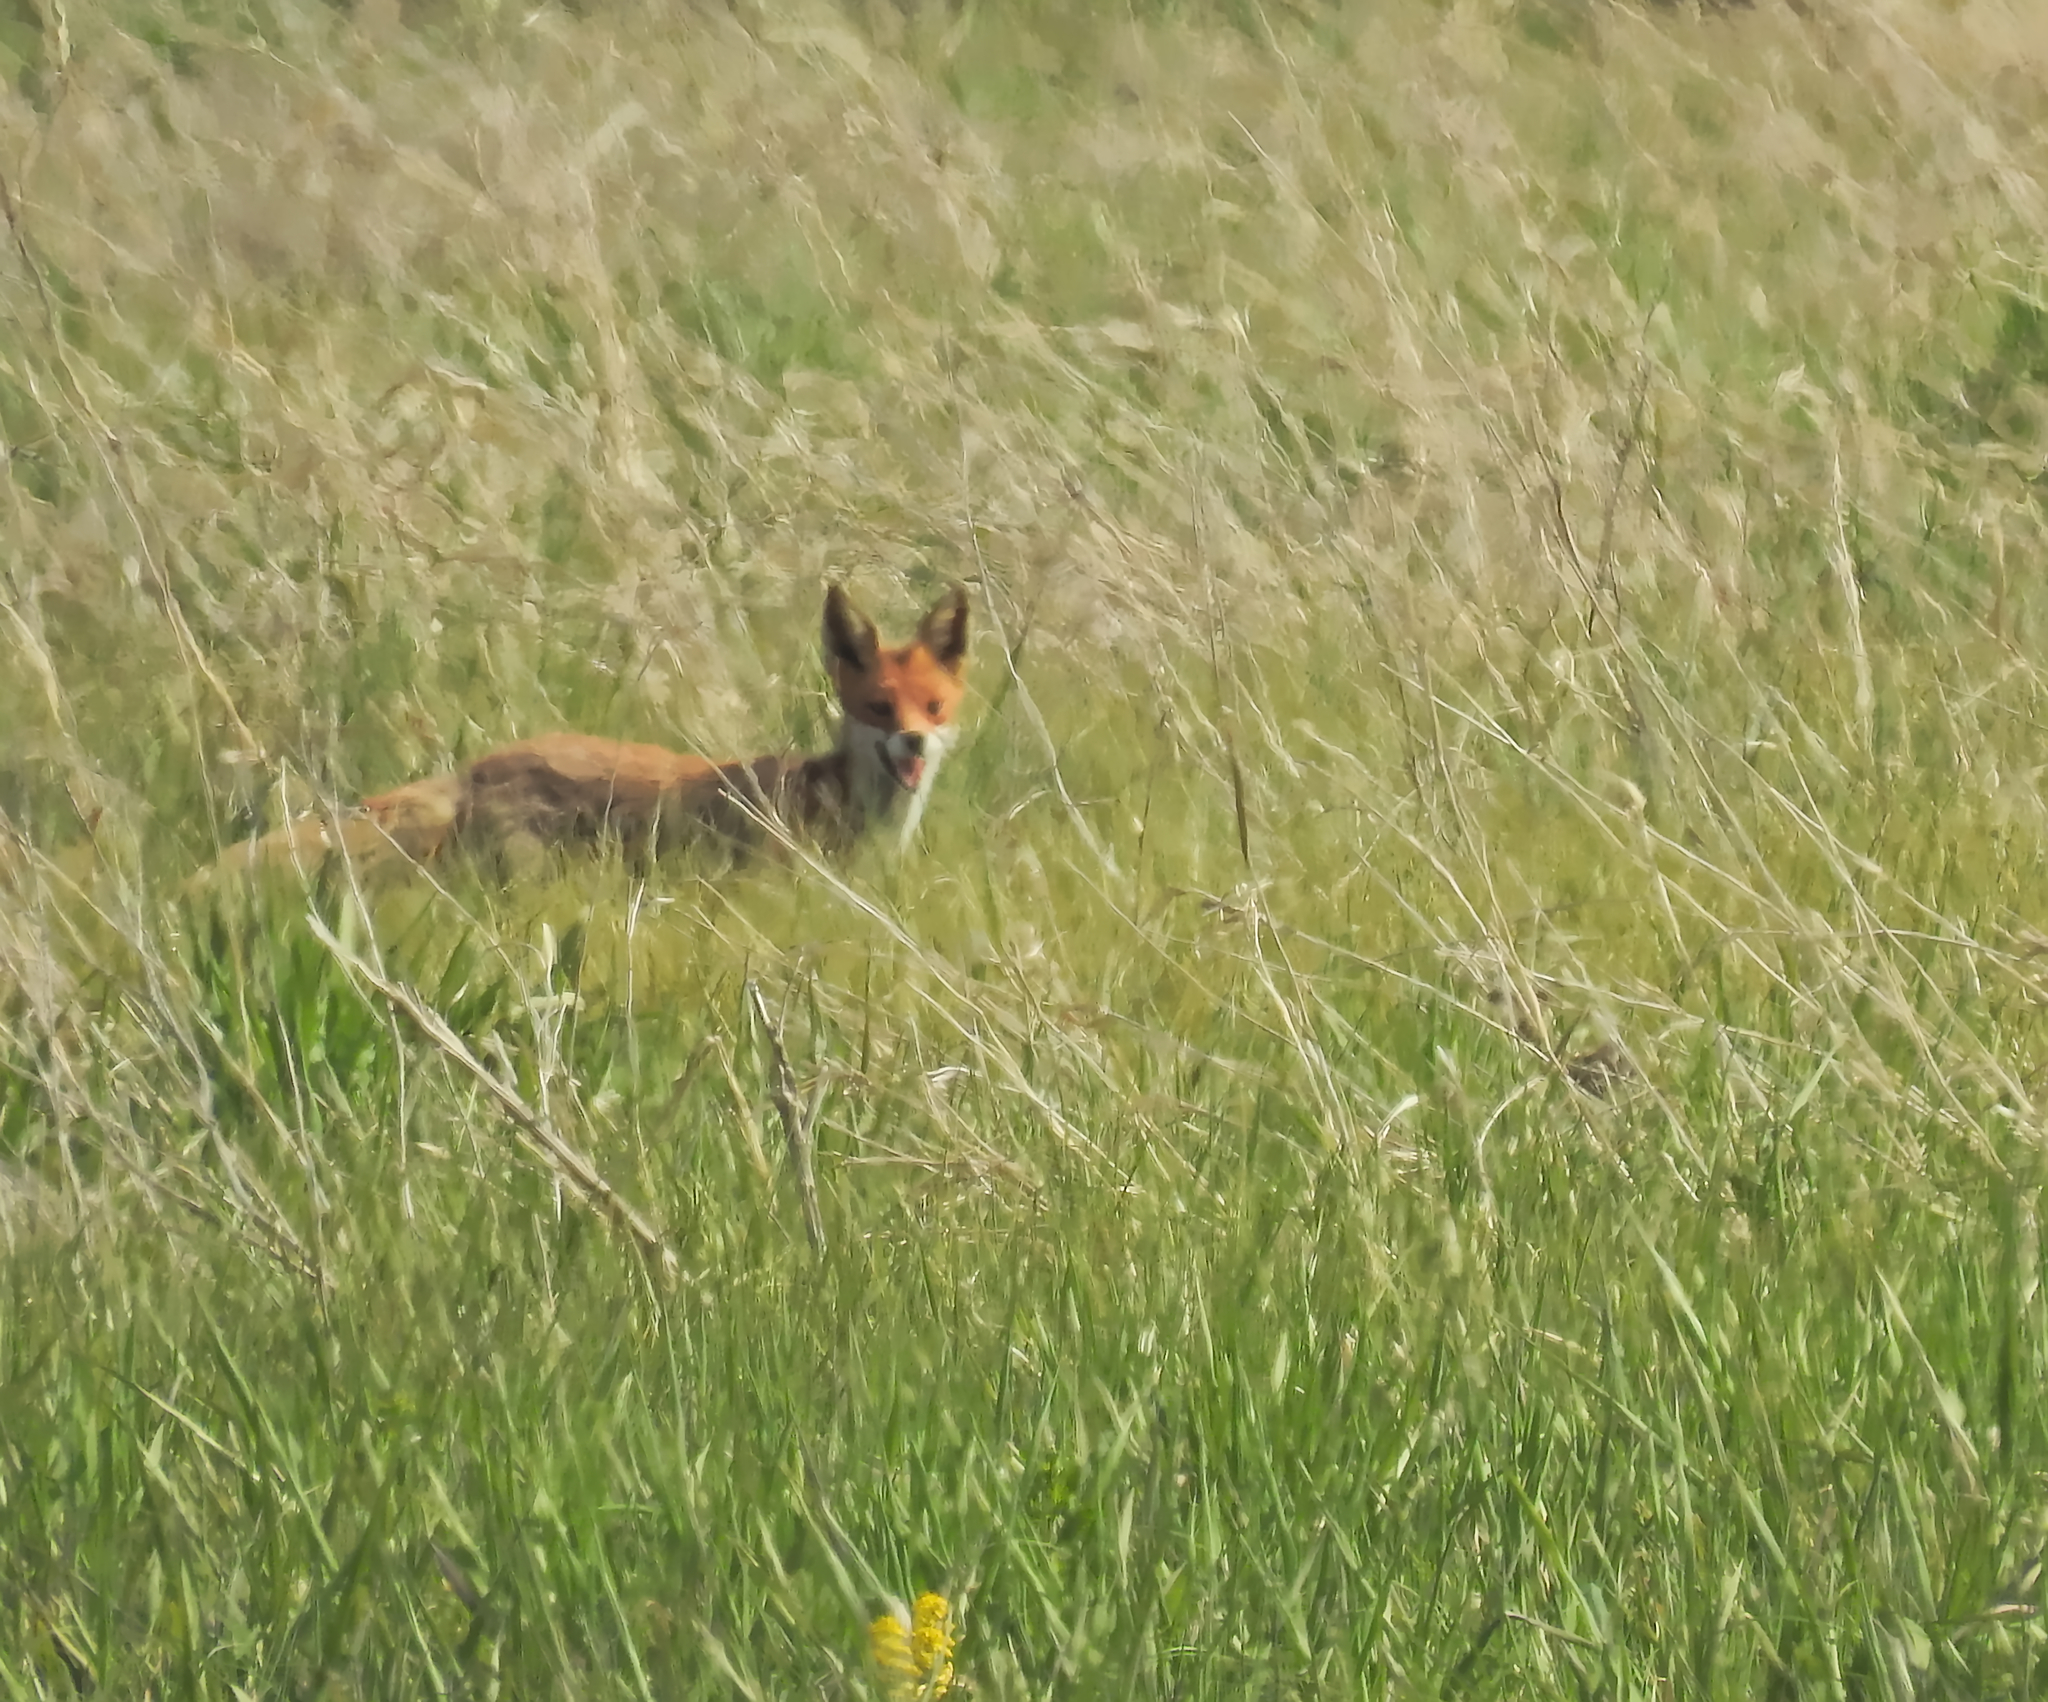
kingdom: Animalia
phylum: Chordata
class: Mammalia
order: Carnivora
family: Canidae
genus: Vulpes
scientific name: Vulpes vulpes
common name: Red fox
